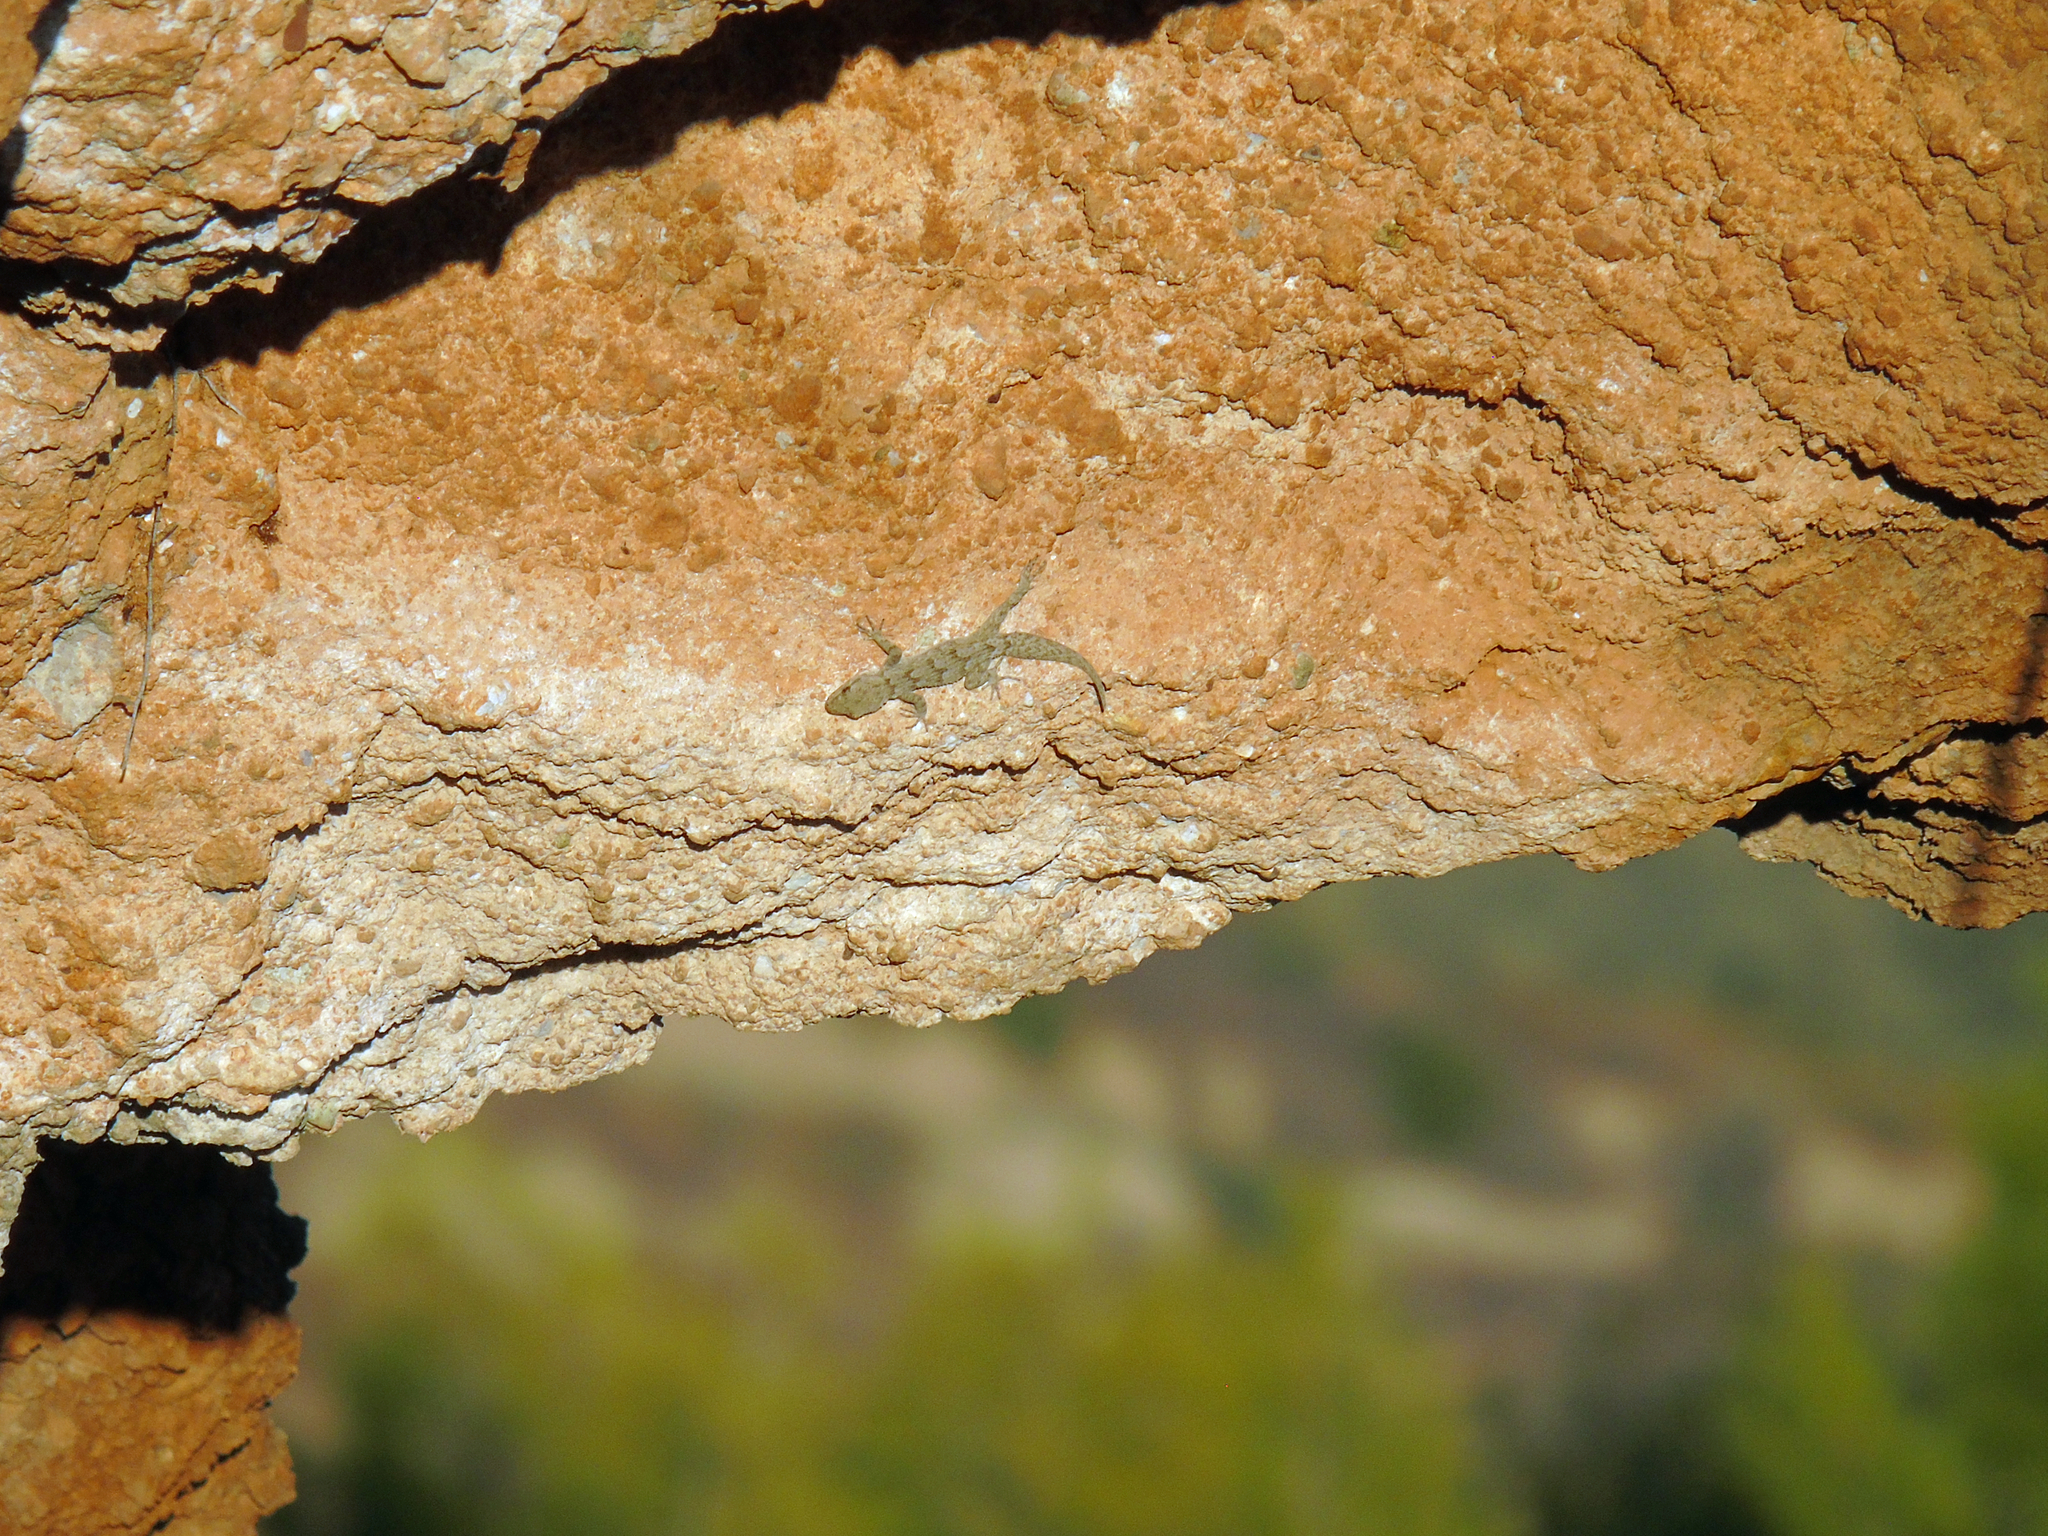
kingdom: Animalia
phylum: Chordata
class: Squamata
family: Gekkonidae
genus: Mediodactylus
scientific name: Mediodactylus kotschyi
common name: Kotschy's gecko
